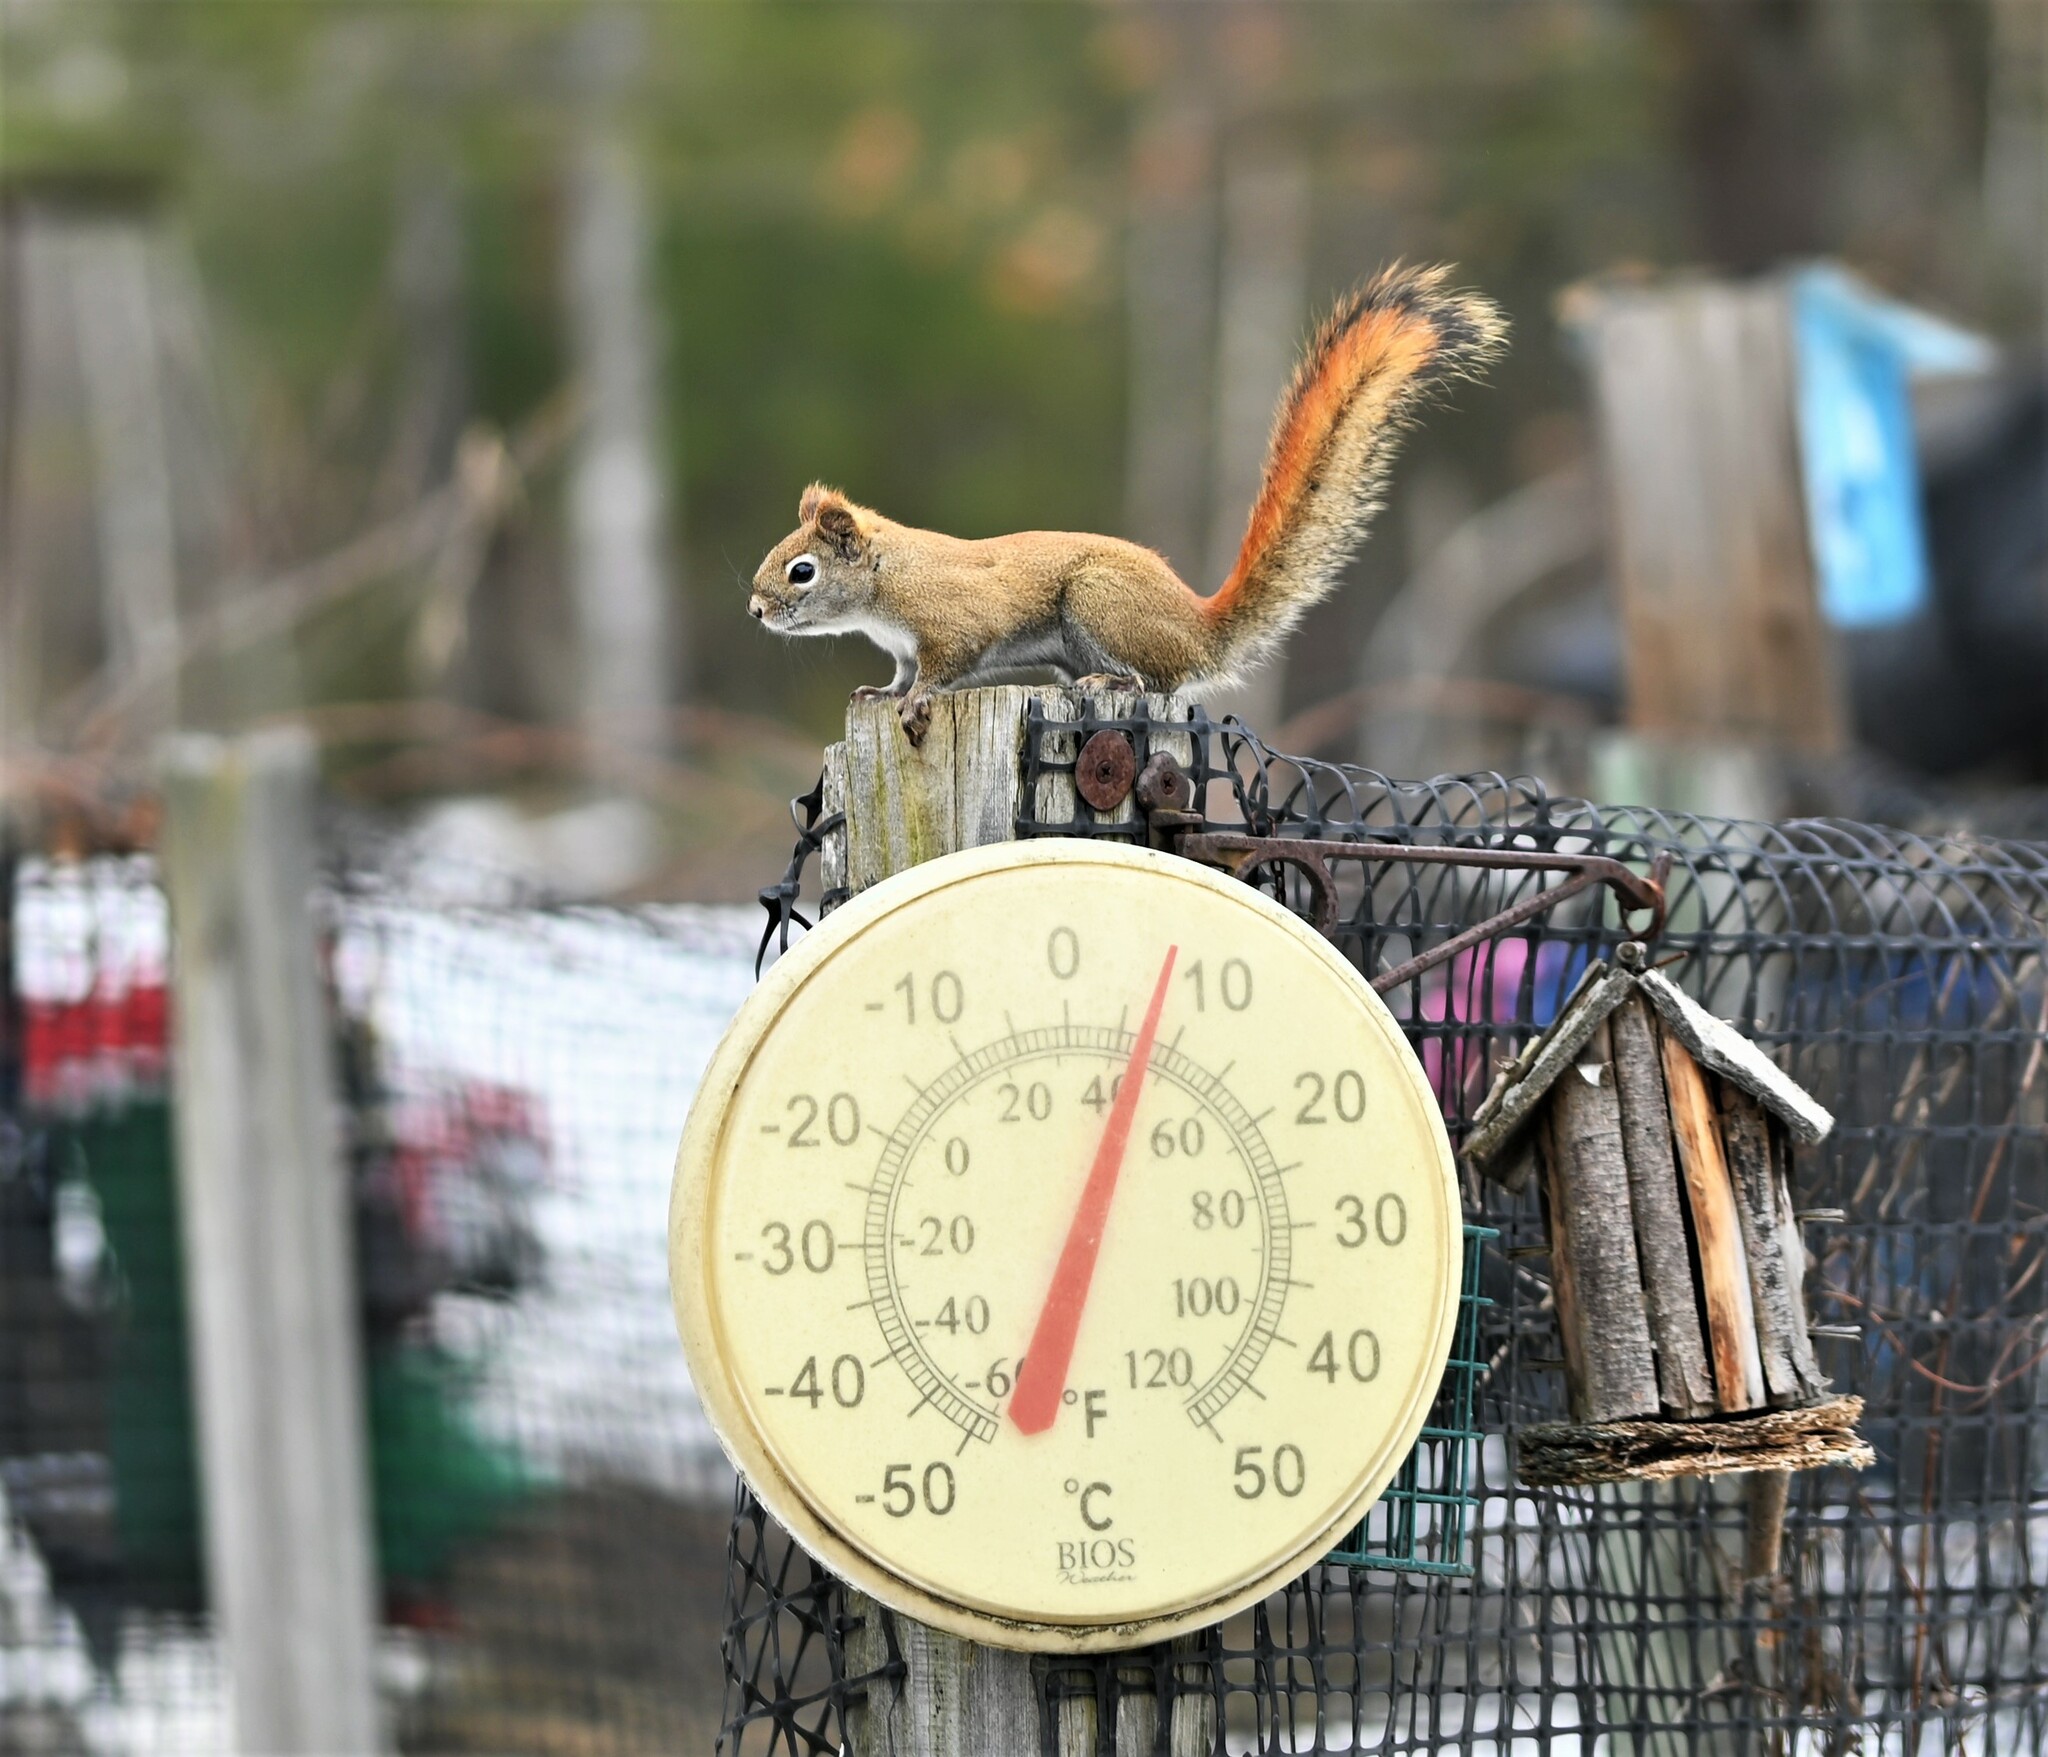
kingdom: Animalia
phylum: Chordata
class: Mammalia
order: Rodentia
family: Sciuridae
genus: Tamiasciurus
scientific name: Tamiasciurus hudsonicus
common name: Red squirrel
